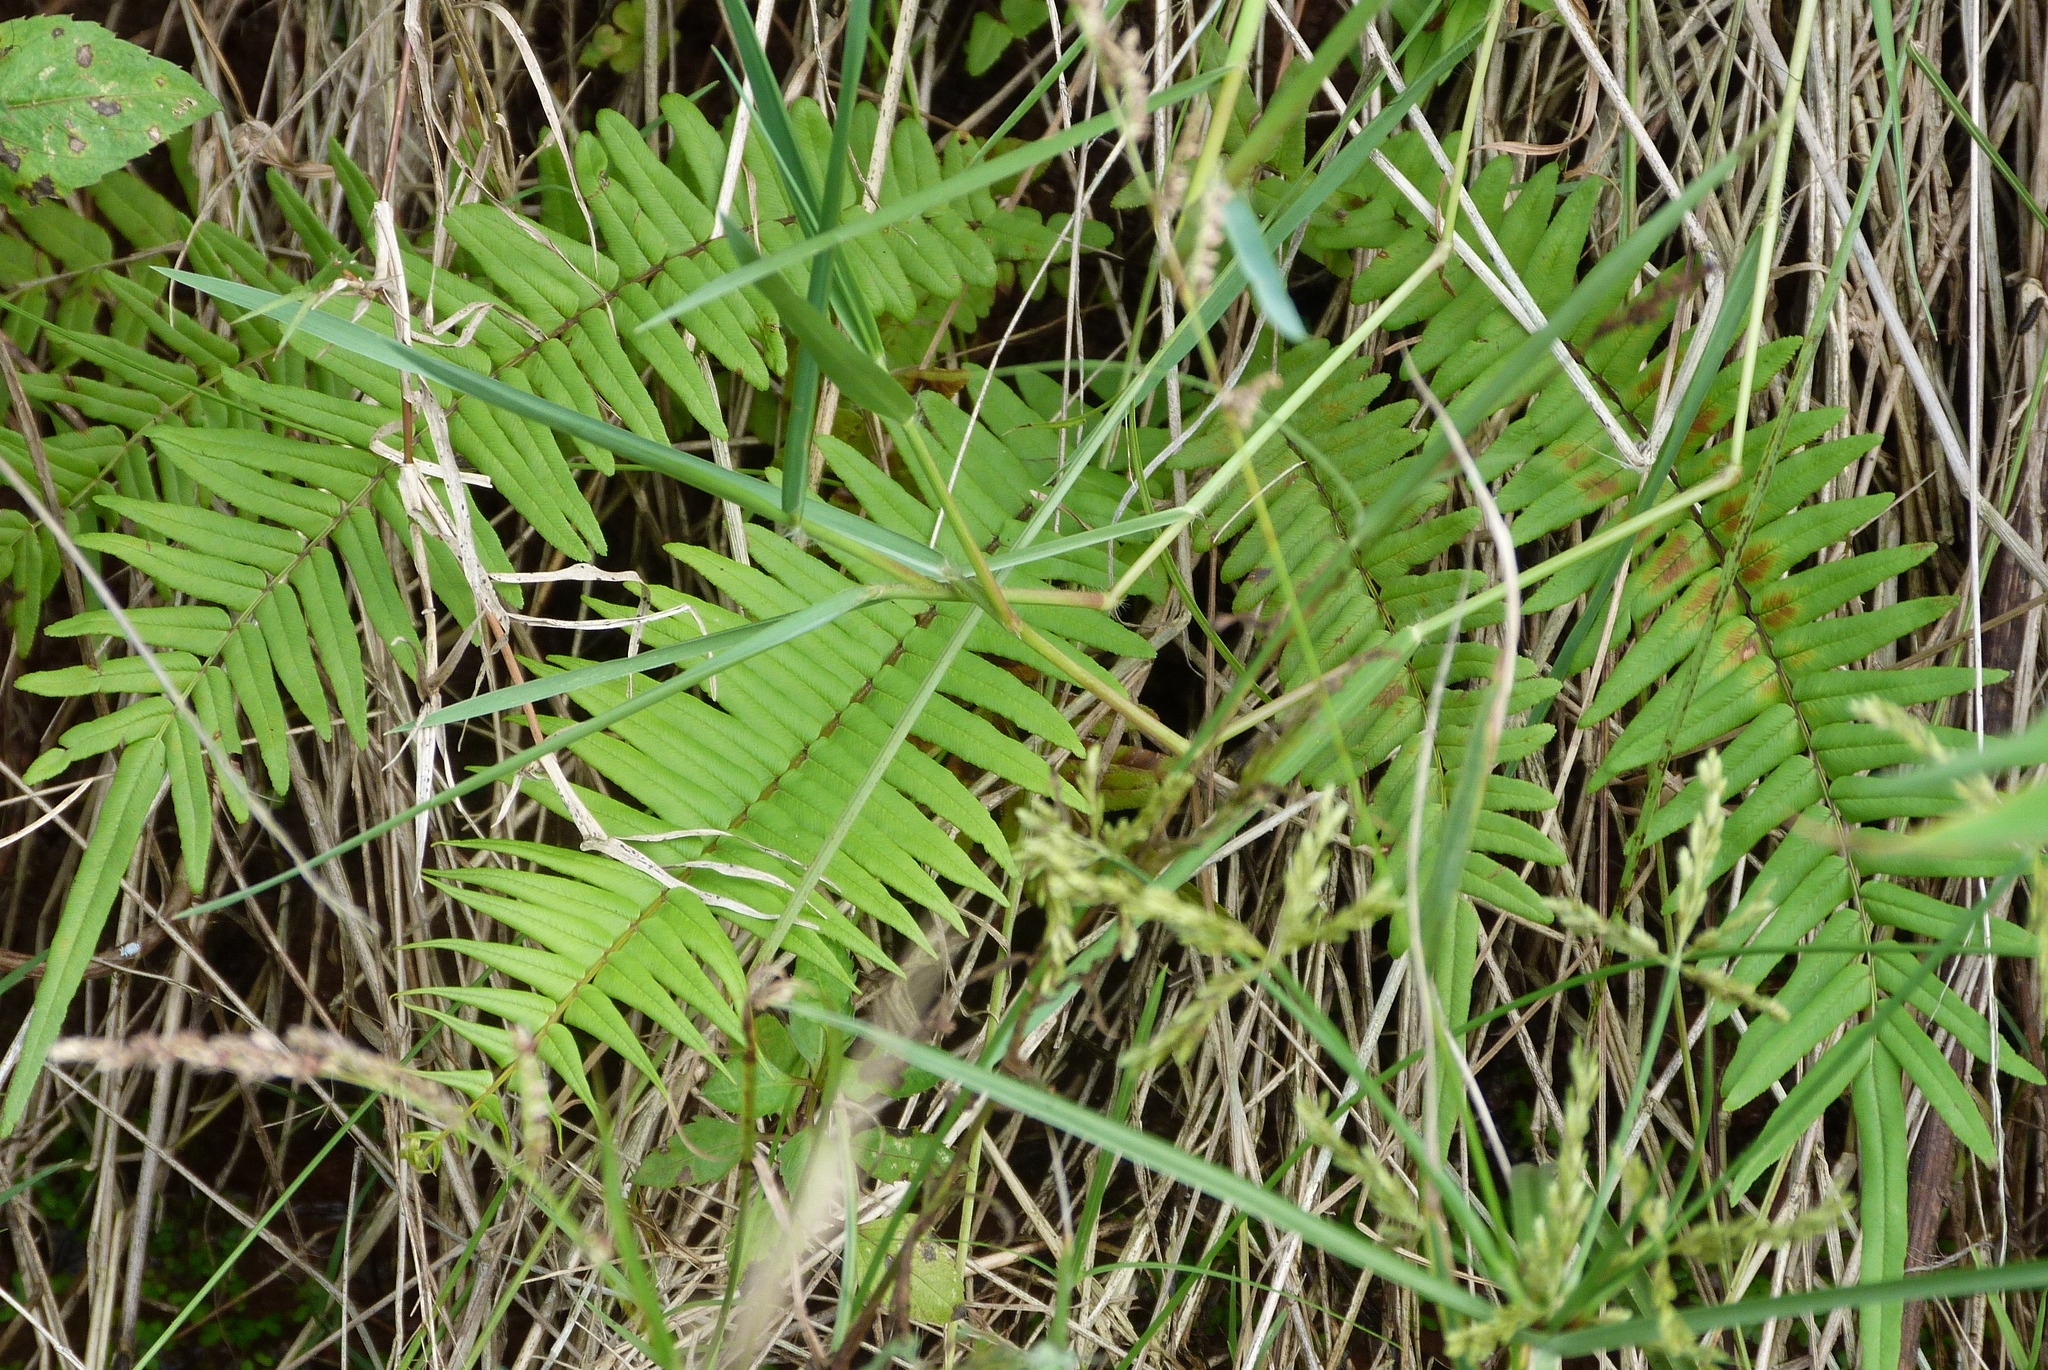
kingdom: Plantae
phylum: Tracheophyta
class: Polypodiopsida
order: Polypodiales
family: Pteridaceae
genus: Pteris
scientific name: Pteris vittata
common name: Ladder brake
